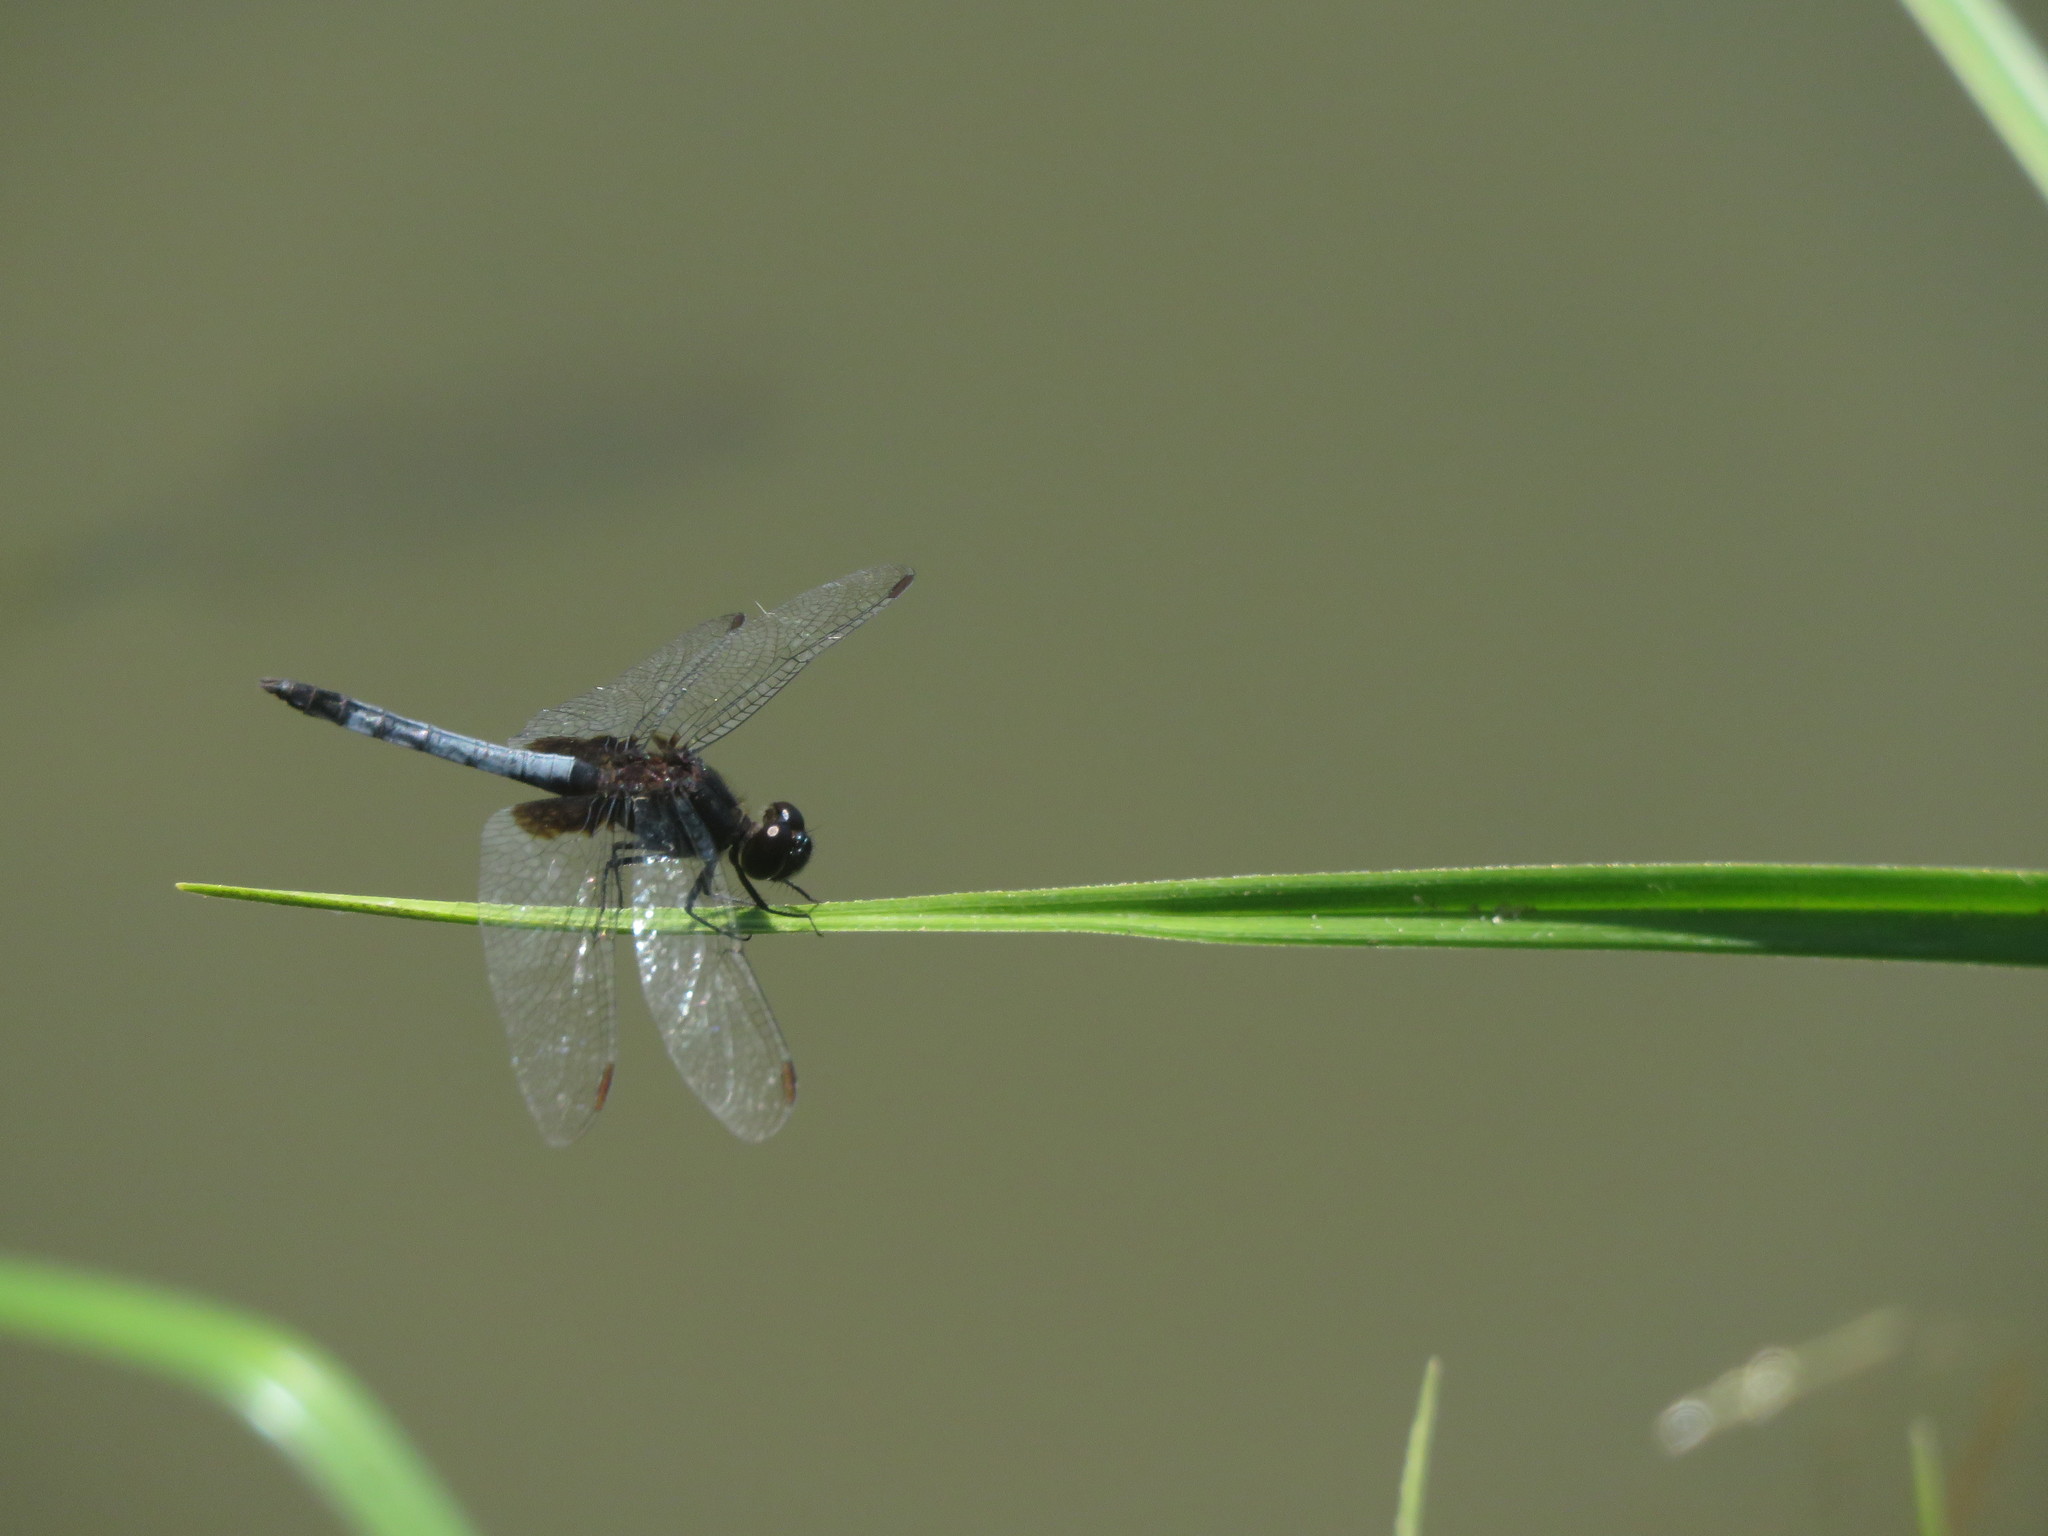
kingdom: Animalia
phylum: Arthropoda
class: Insecta
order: Odonata
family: Libellulidae
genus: Erythrodiplax
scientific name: Erythrodiplax media
